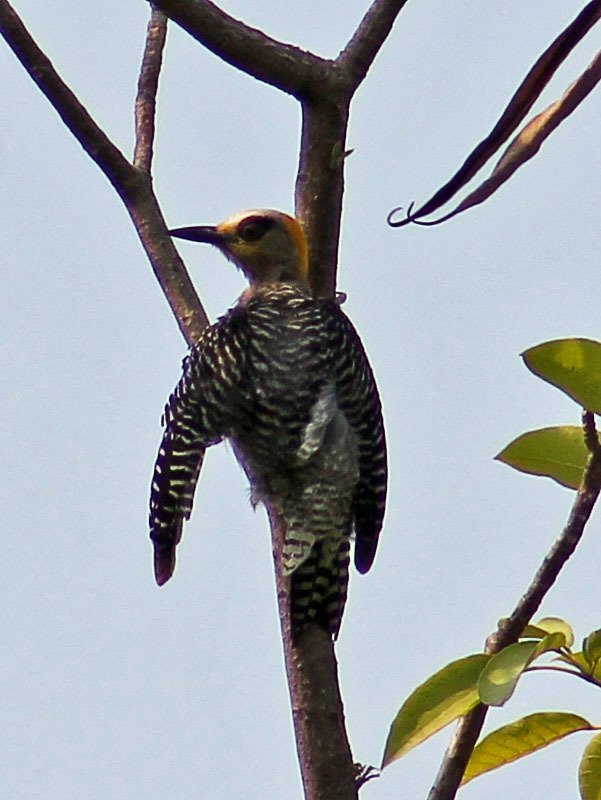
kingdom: Animalia
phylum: Chordata
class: Aves
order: Piciformes
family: Picidae
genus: Melanerpes
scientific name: Melanerpes chrysogenys
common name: Golden-cheeked woodpecker
